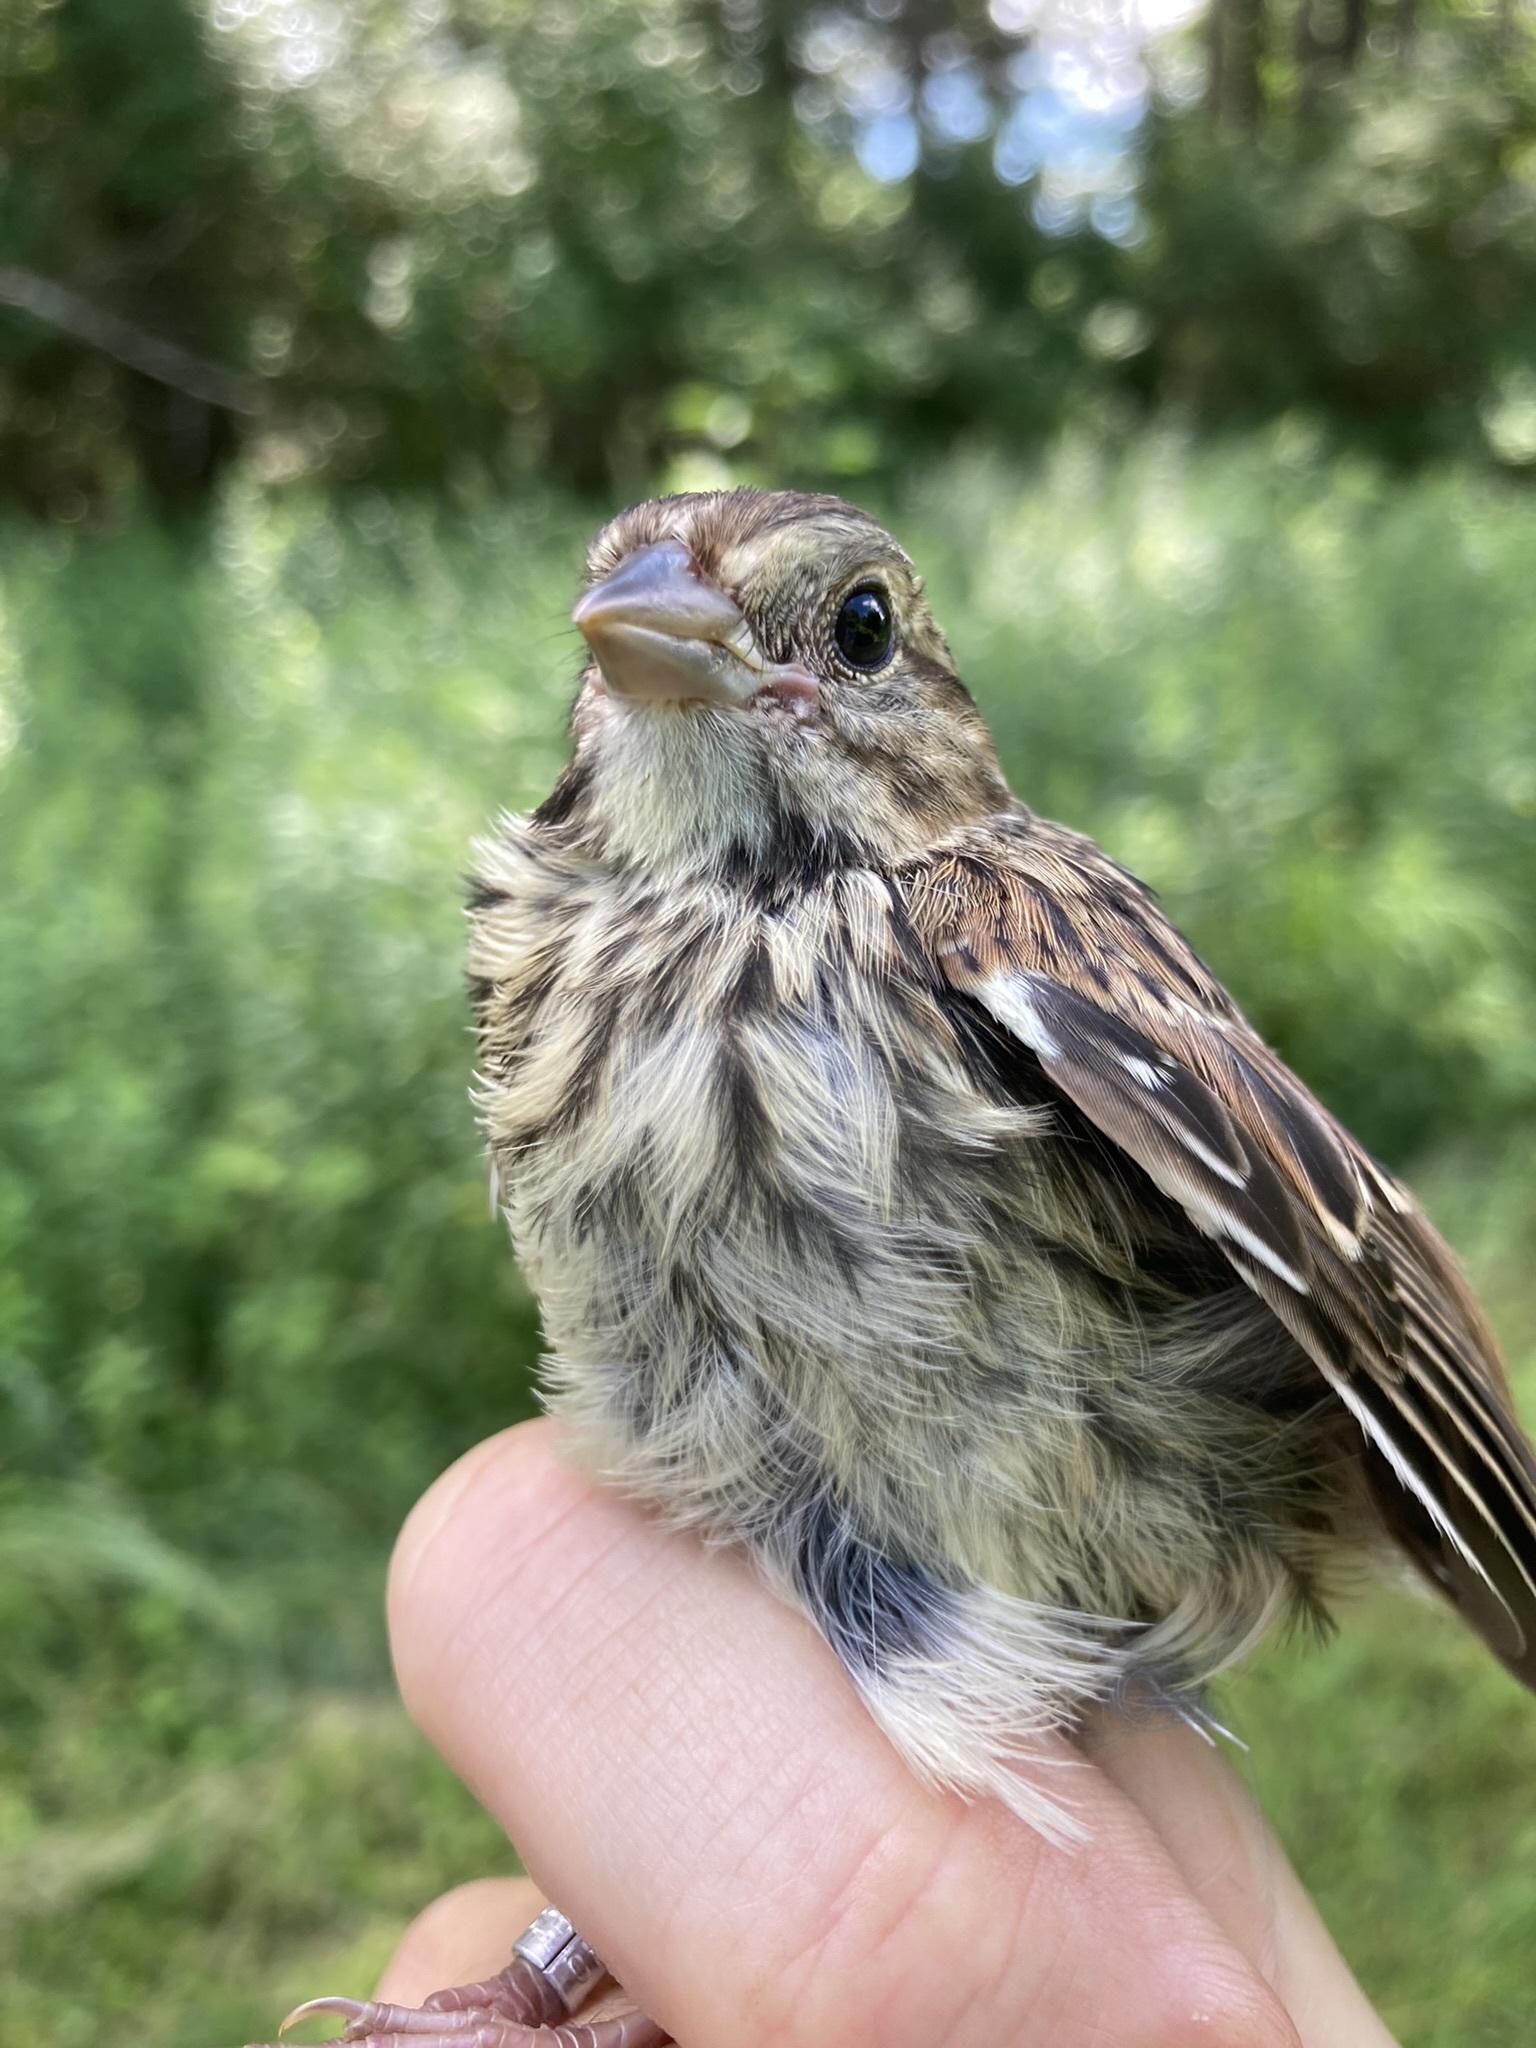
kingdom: Animalia
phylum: Chordata
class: Aves
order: Passeriformes
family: Passerellidae
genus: Melospiza
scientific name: Melospiza melodia
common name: Song sparrow
